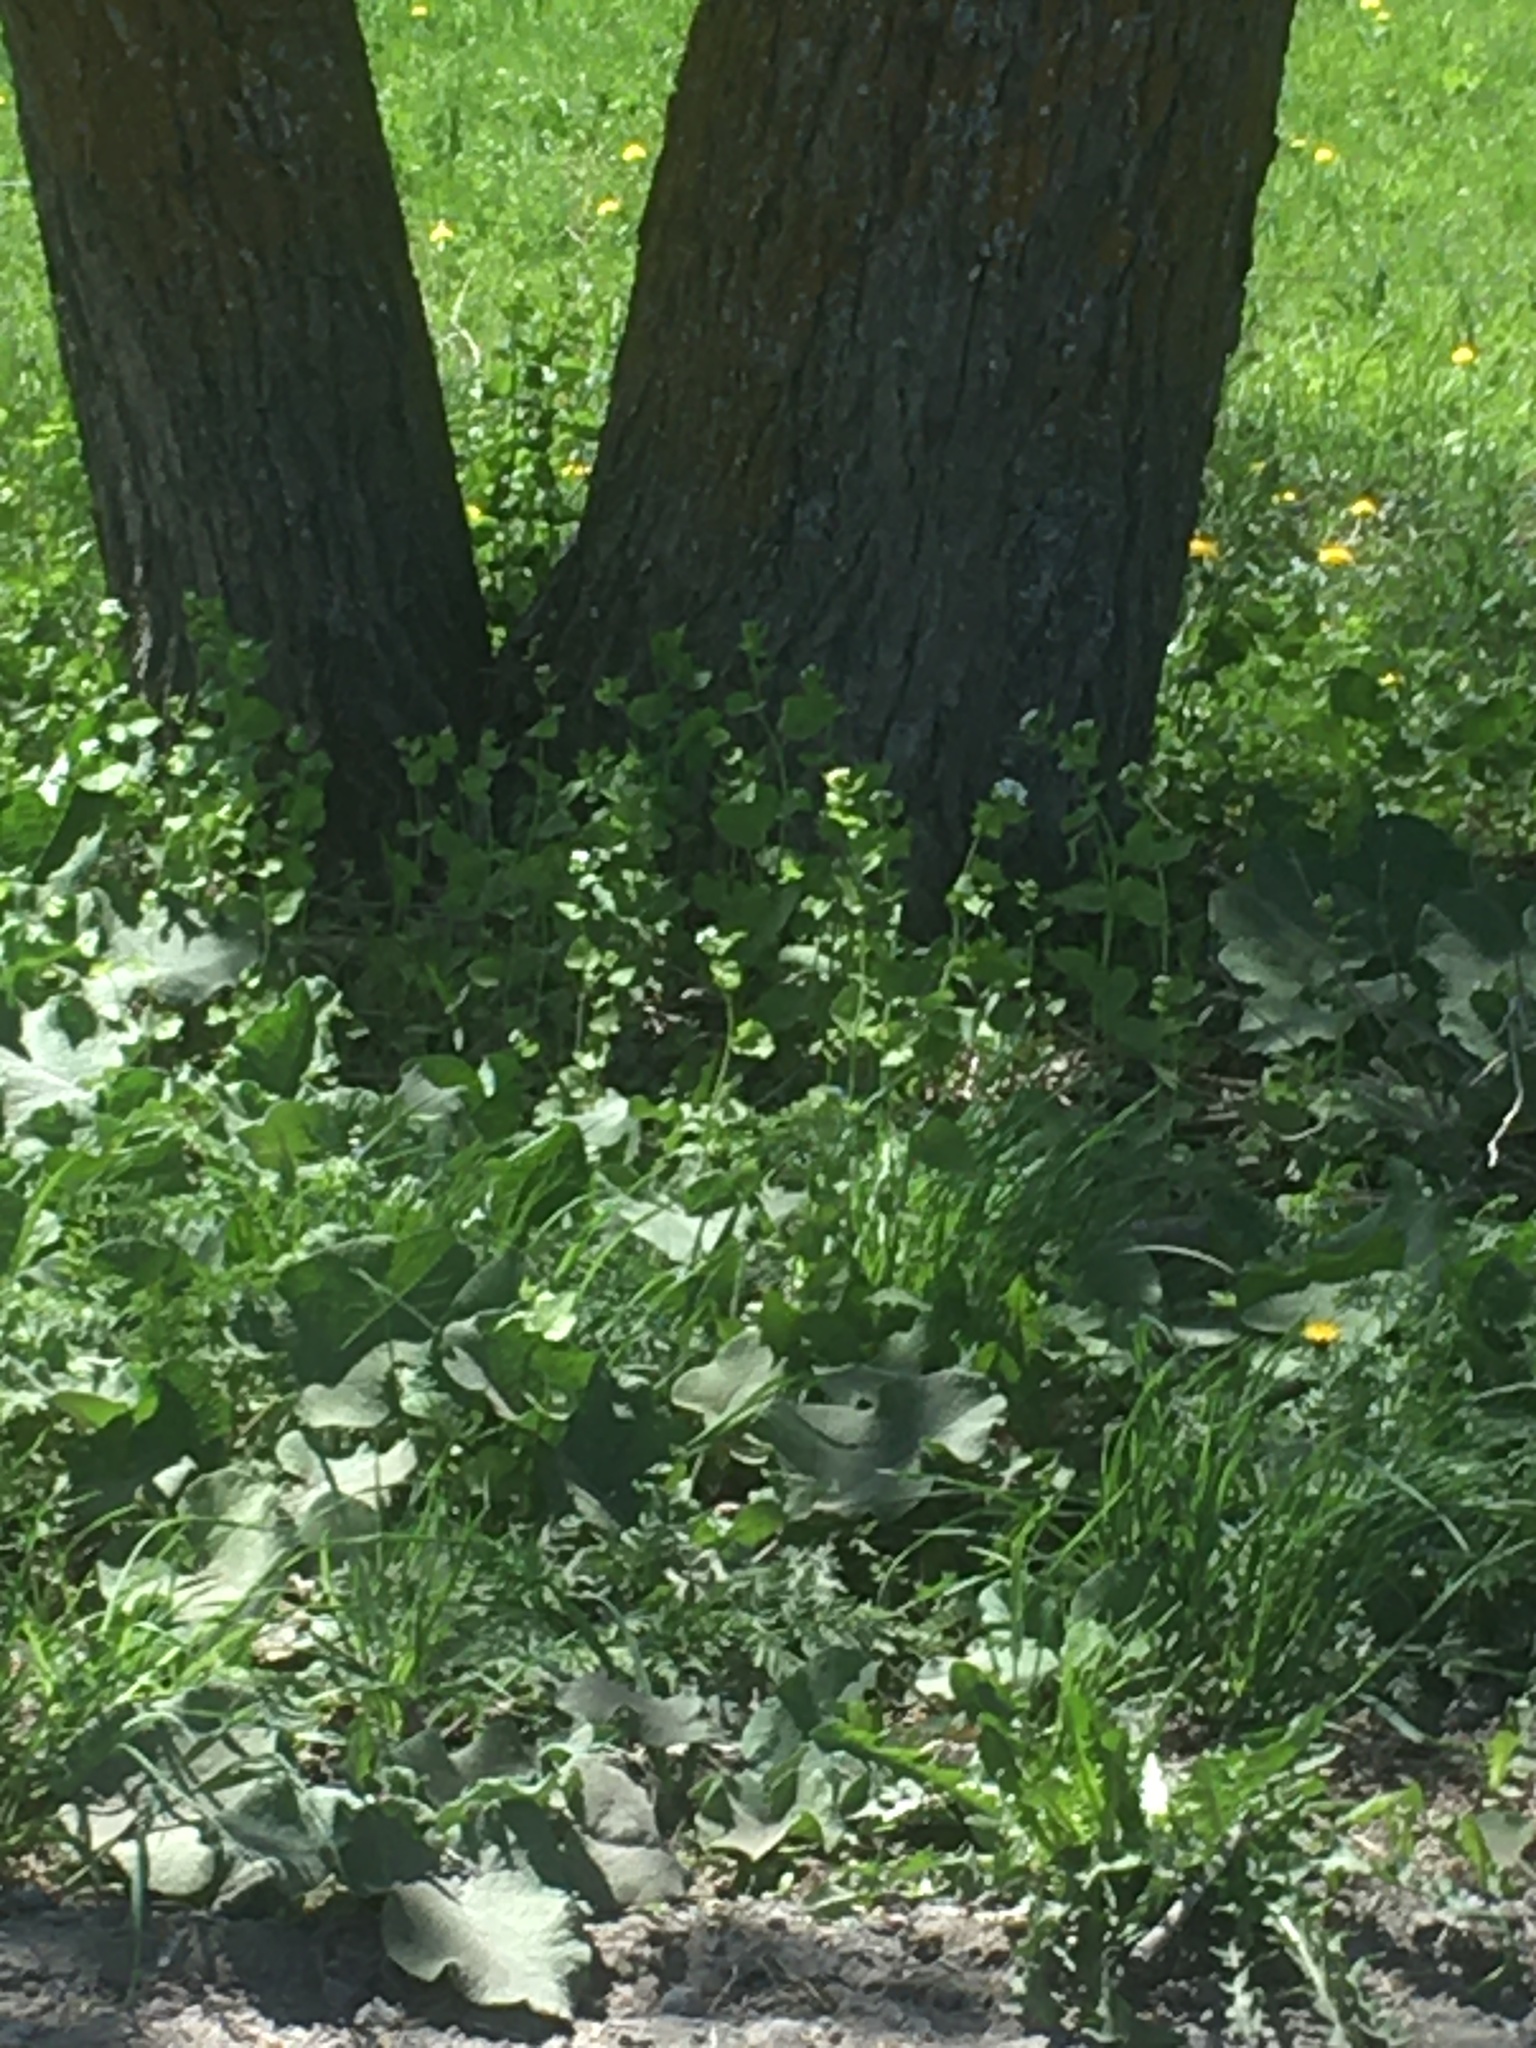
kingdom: Plantae
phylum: Tracheophyta
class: Magnoliopsida
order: Brassicales
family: Brassicaceae
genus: Alliaria
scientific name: Alliaria petiolata
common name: Garlic mustard
